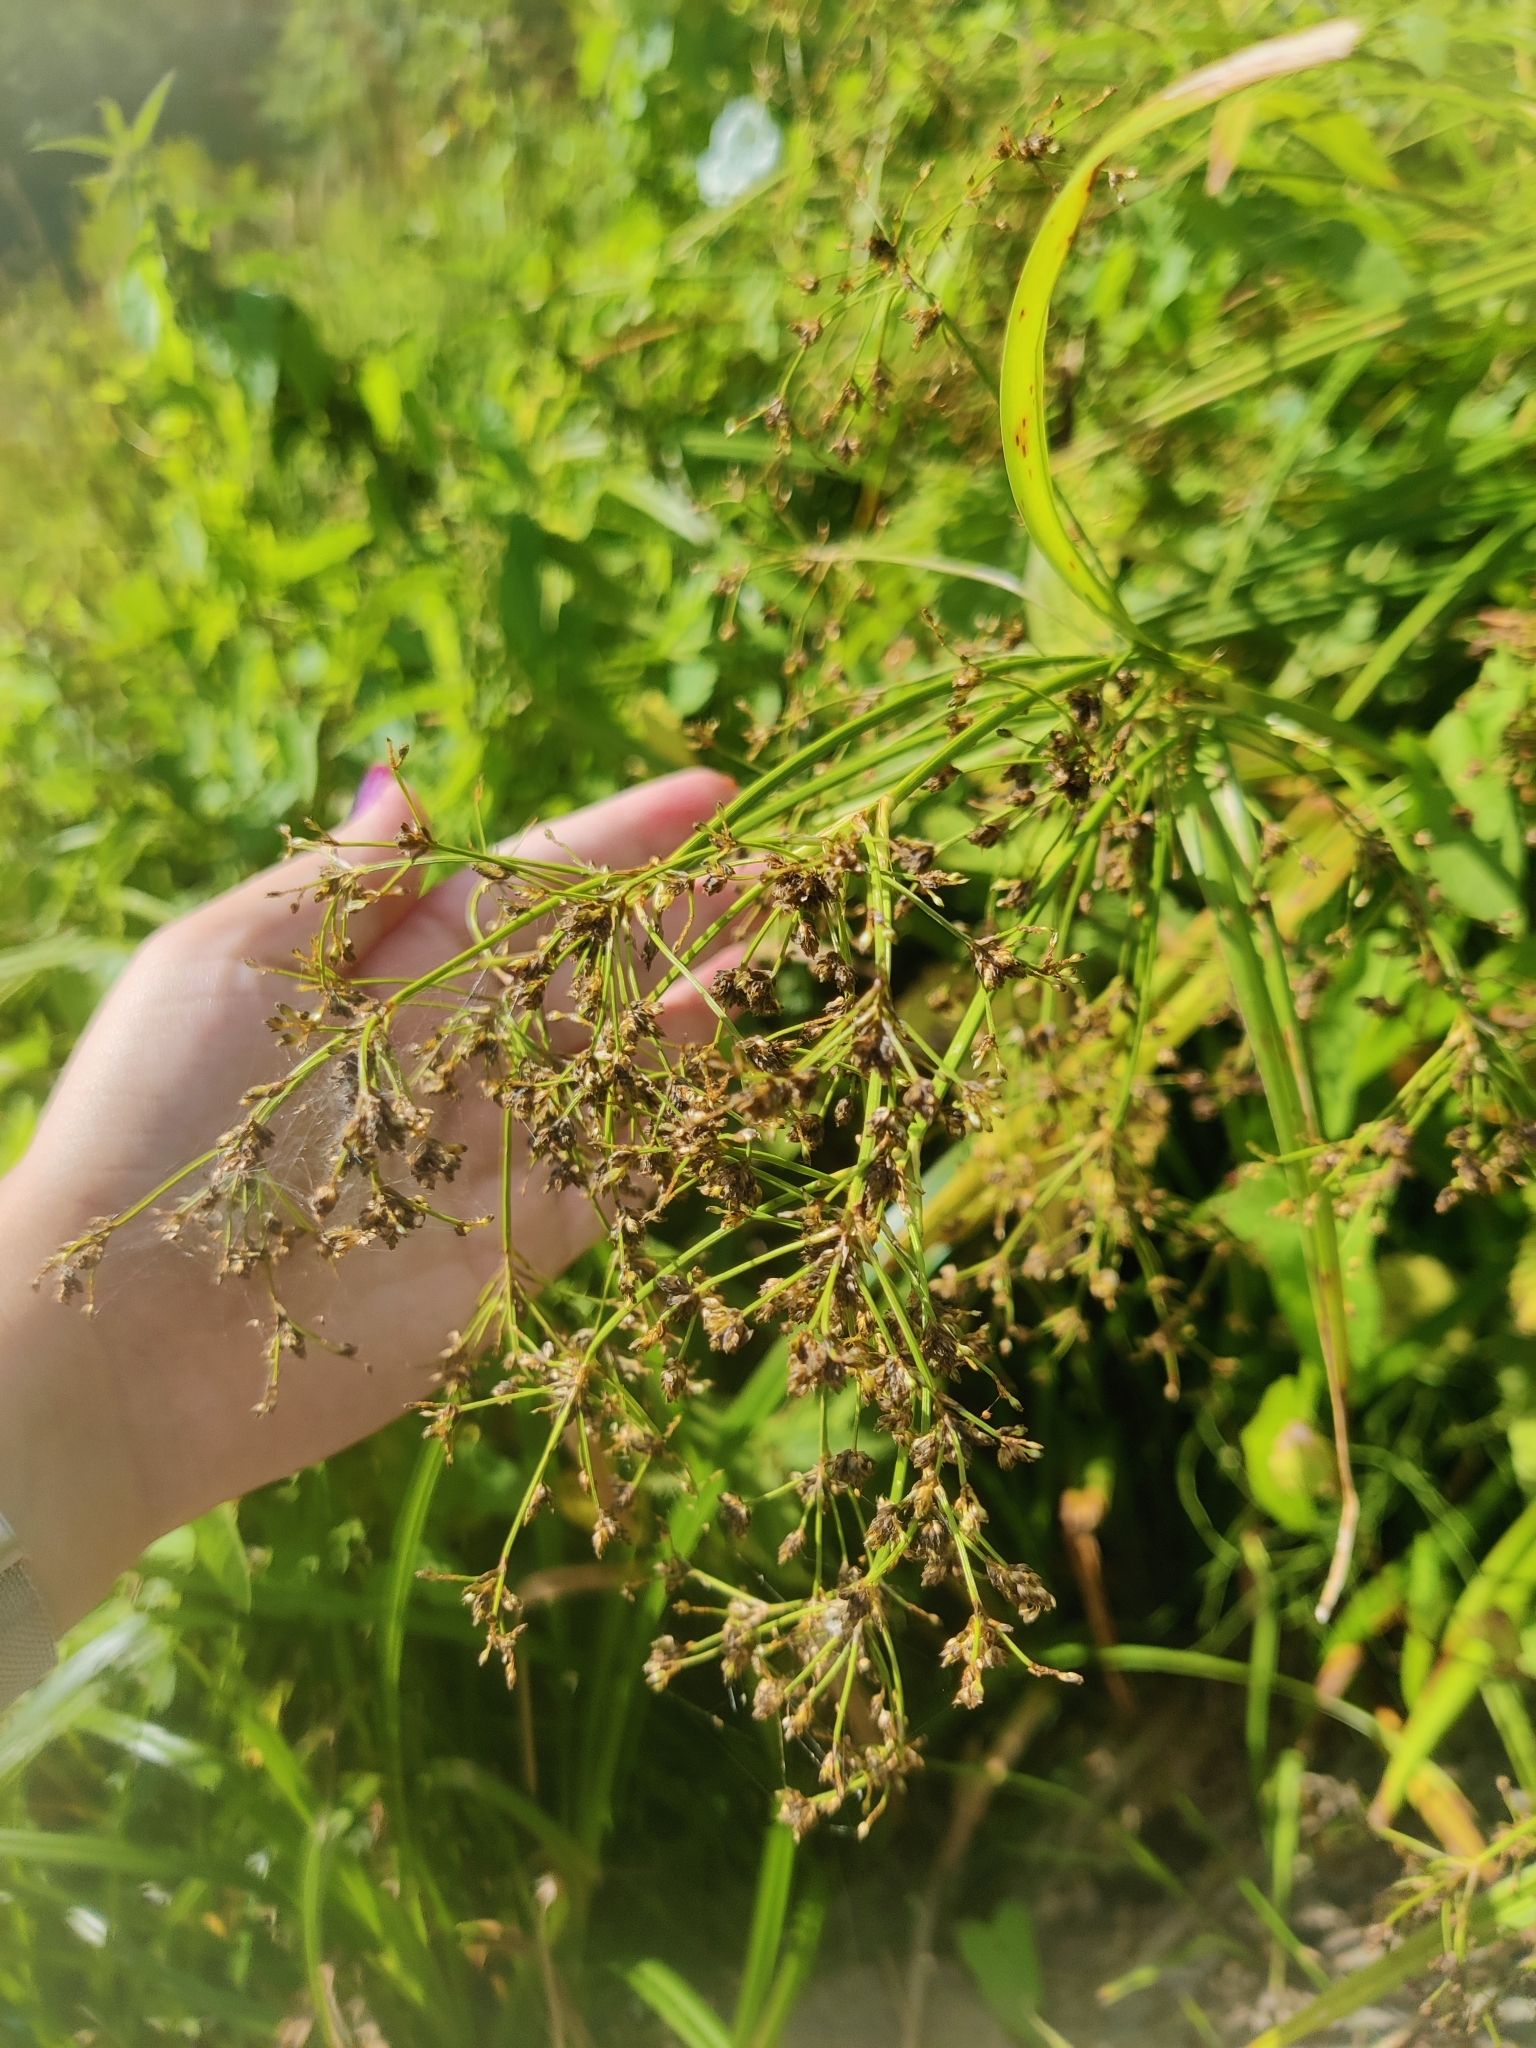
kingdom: Plantae
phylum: Tracheophyta
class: Liliopsida
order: Poales
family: Cyperaceae
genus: Scirpus
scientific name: Scirpus sylvaticus
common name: Wood club-rush
